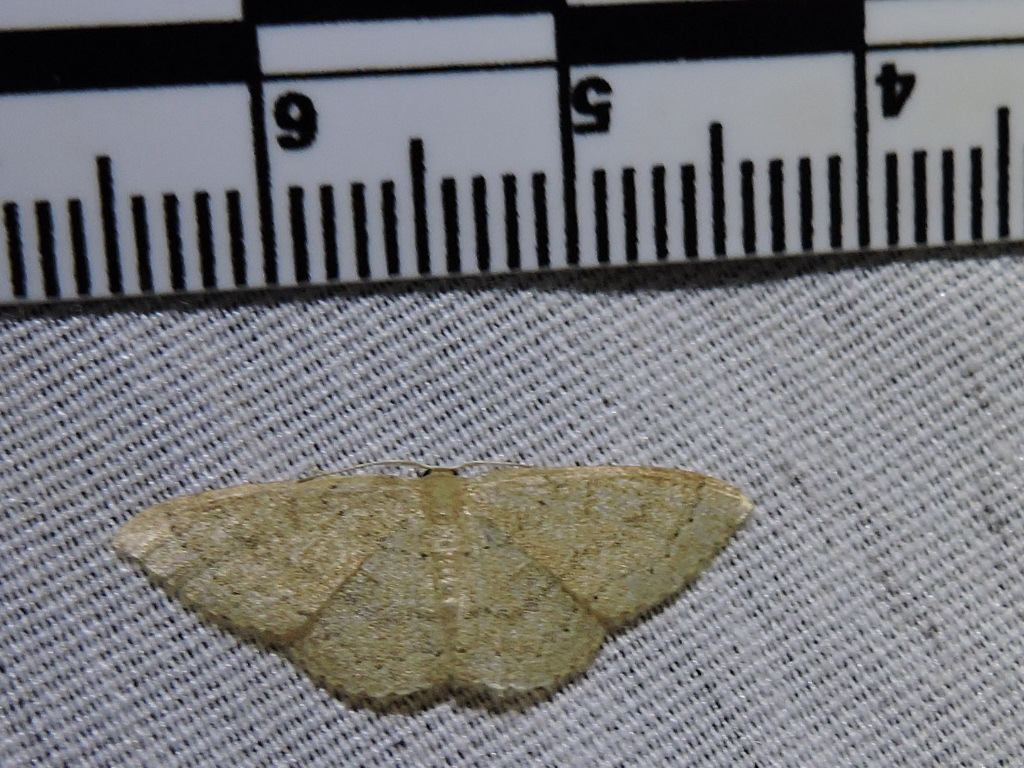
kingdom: Animalia
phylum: Arthropoda
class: Insecta
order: Lepidoptera
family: Geometridae
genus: Pleuroprucha
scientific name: Pleuroprucha insulsaria
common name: Common tan wave
